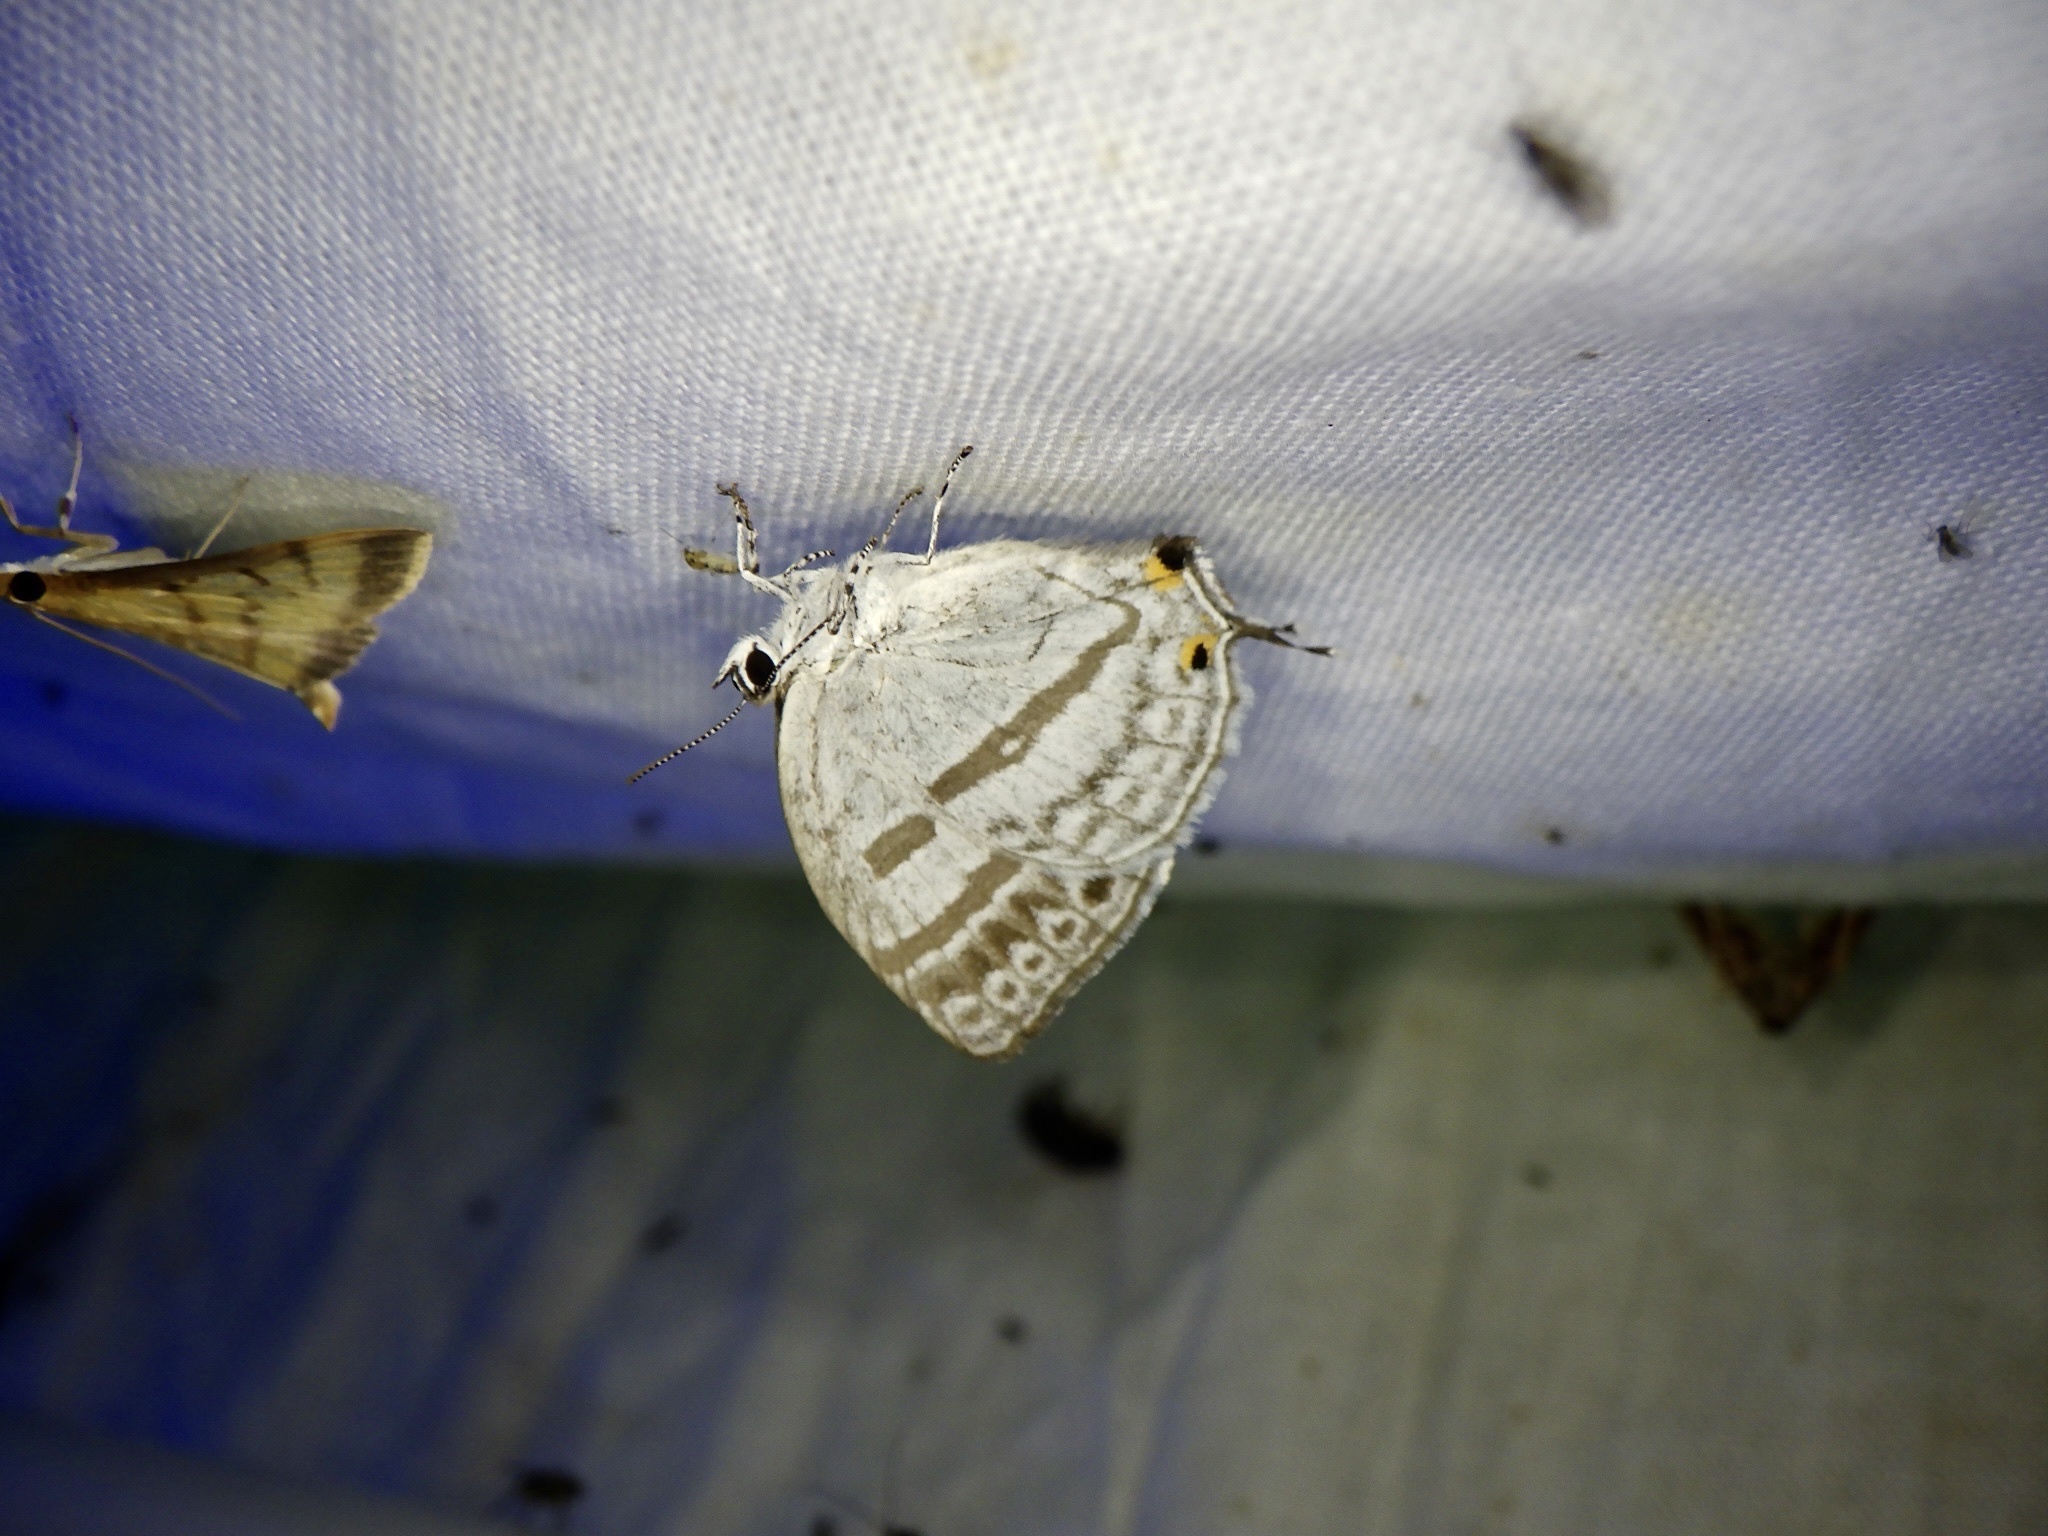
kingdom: Animalia
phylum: Arthropoda
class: Insecta
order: Lepidoptera
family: Lycaenidae
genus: Antigius
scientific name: Antigius attilia
